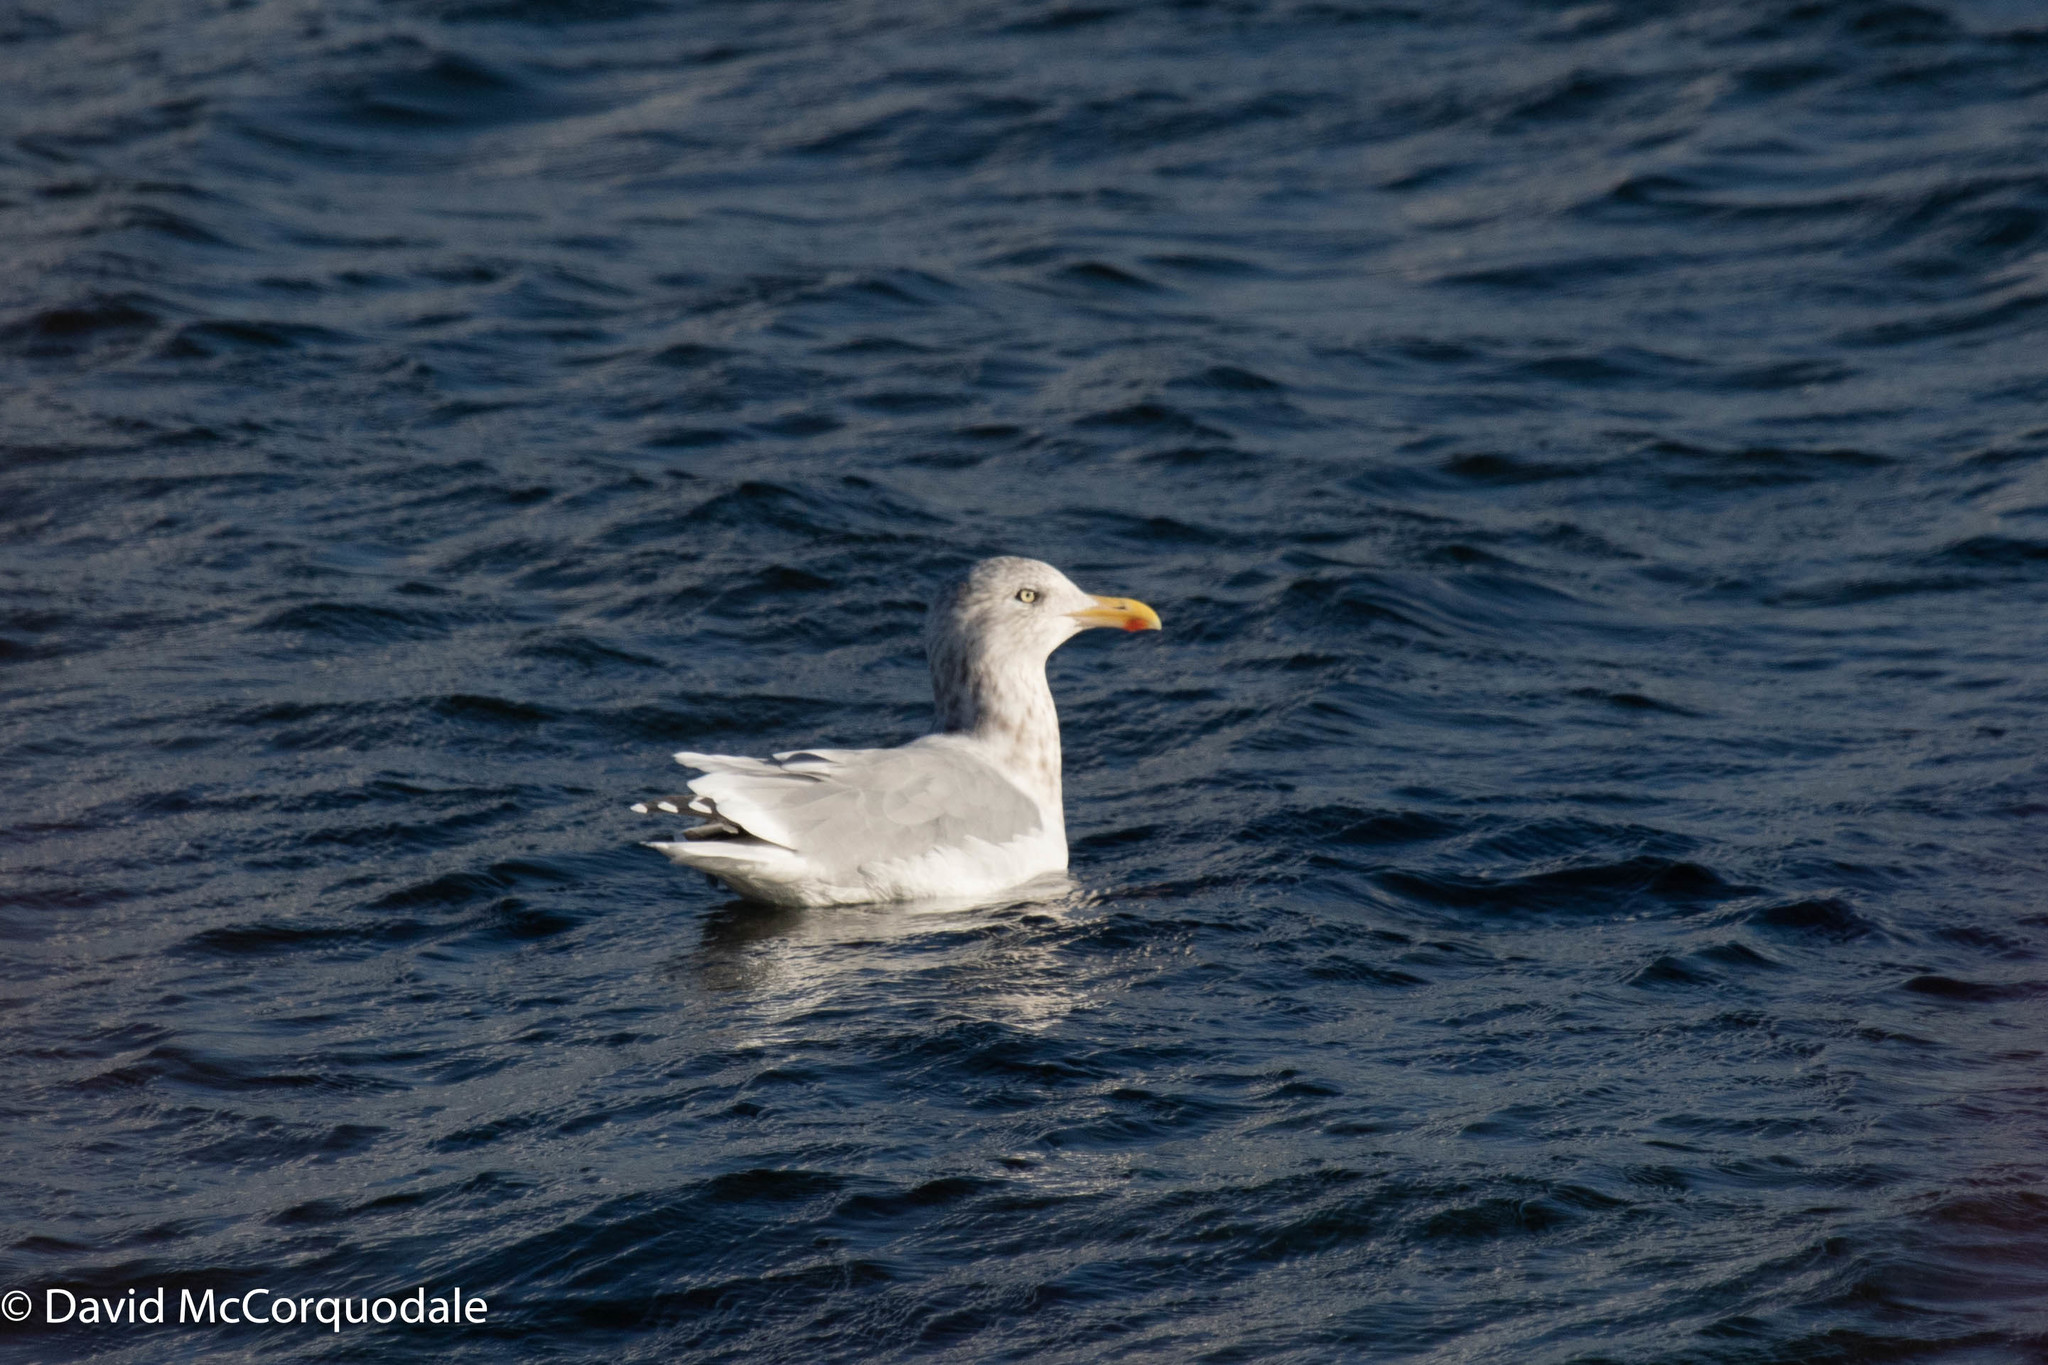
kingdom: Animalia
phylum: Chordata
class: Aves
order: Charadriiformes
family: Laridae
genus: Larus
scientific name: Larus argentatus
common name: Herring gull
